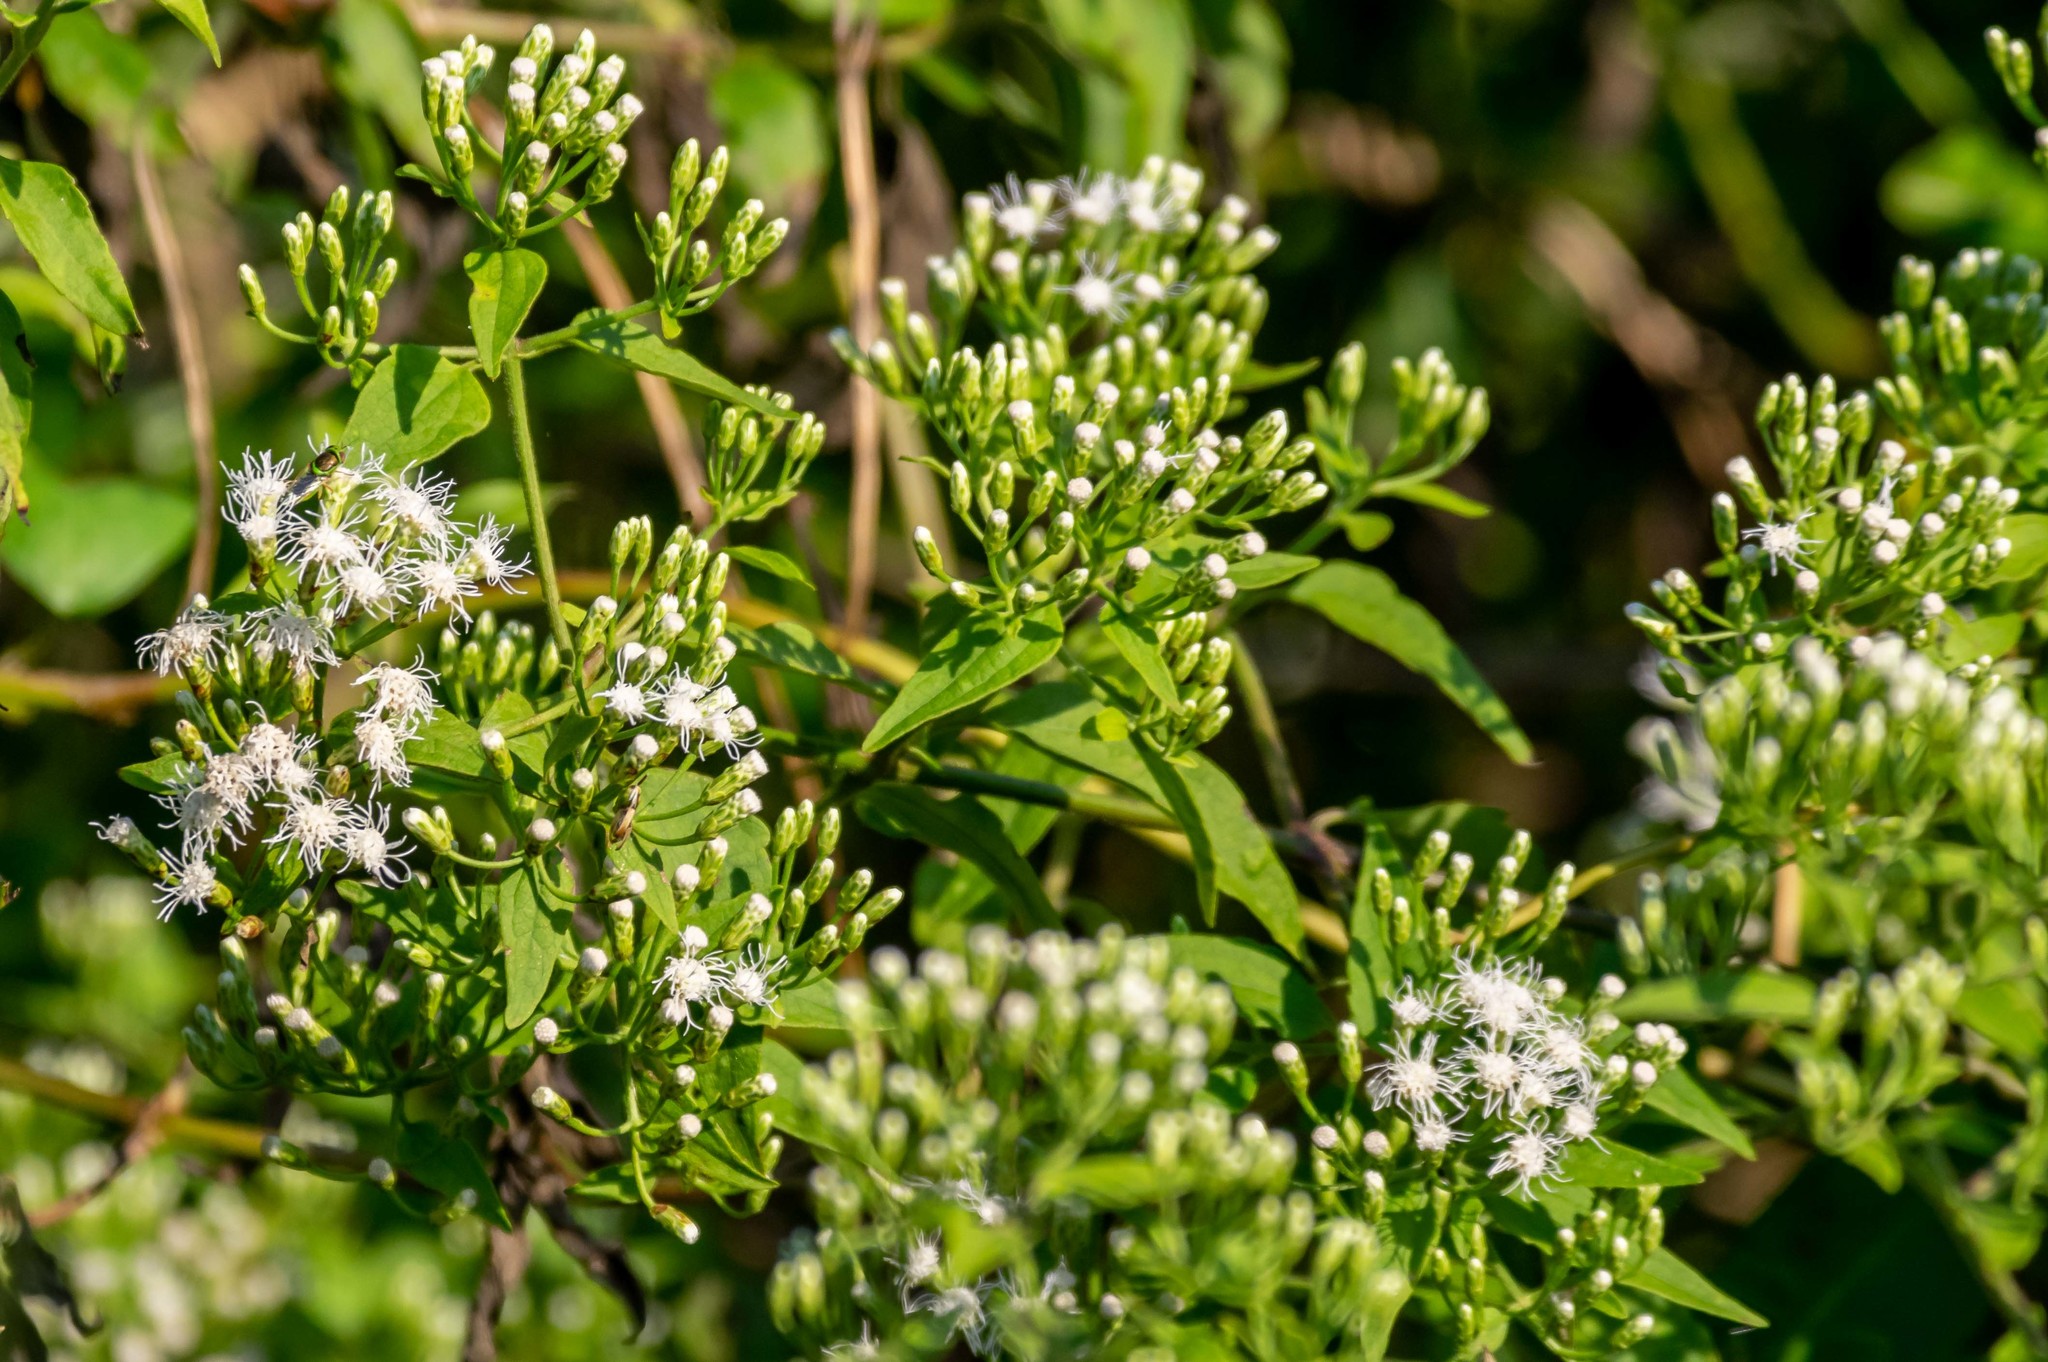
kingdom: Plantae
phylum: Tracheophyta
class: Magnoliopsida
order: Asterales
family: Asteraceae
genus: Chromolaena
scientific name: Chromolaena odorata
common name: Siamweed
